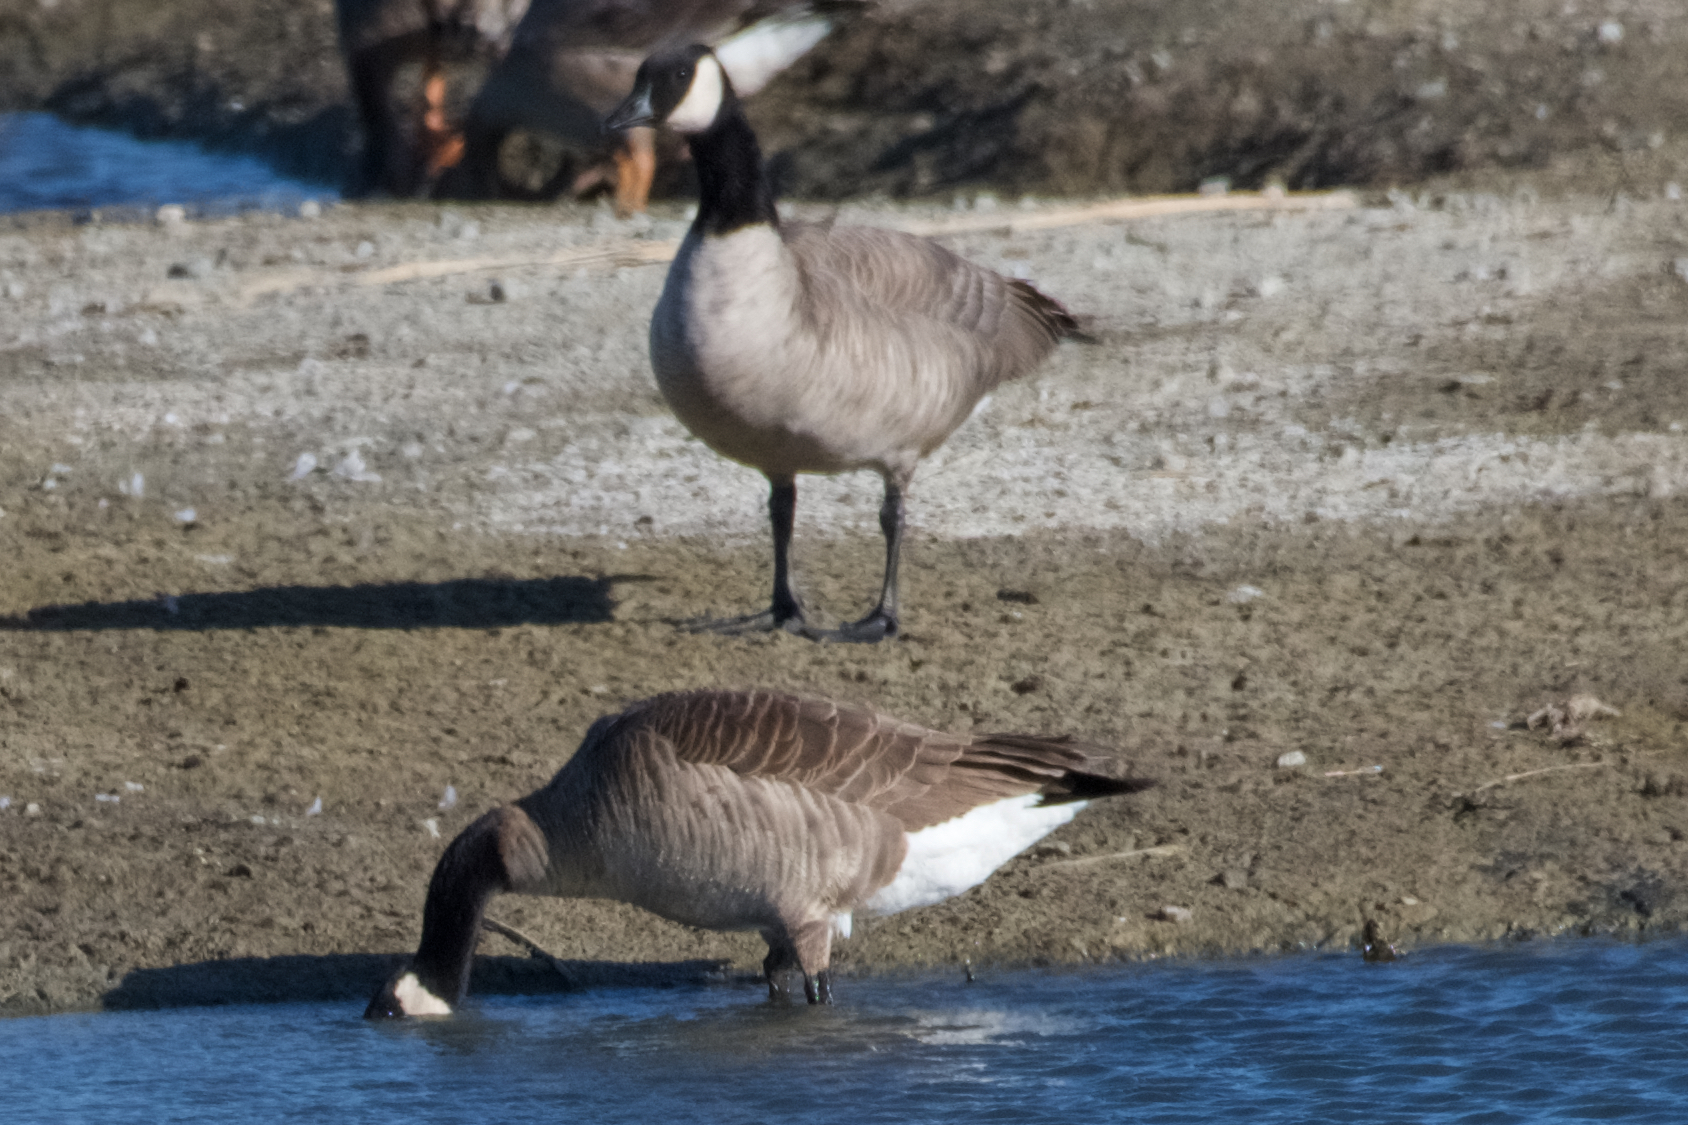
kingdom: Animalia
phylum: Chordata
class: Aves
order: Anseriformes
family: Anatidae
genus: Branta
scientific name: Branta canadensis
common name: Canada goose
